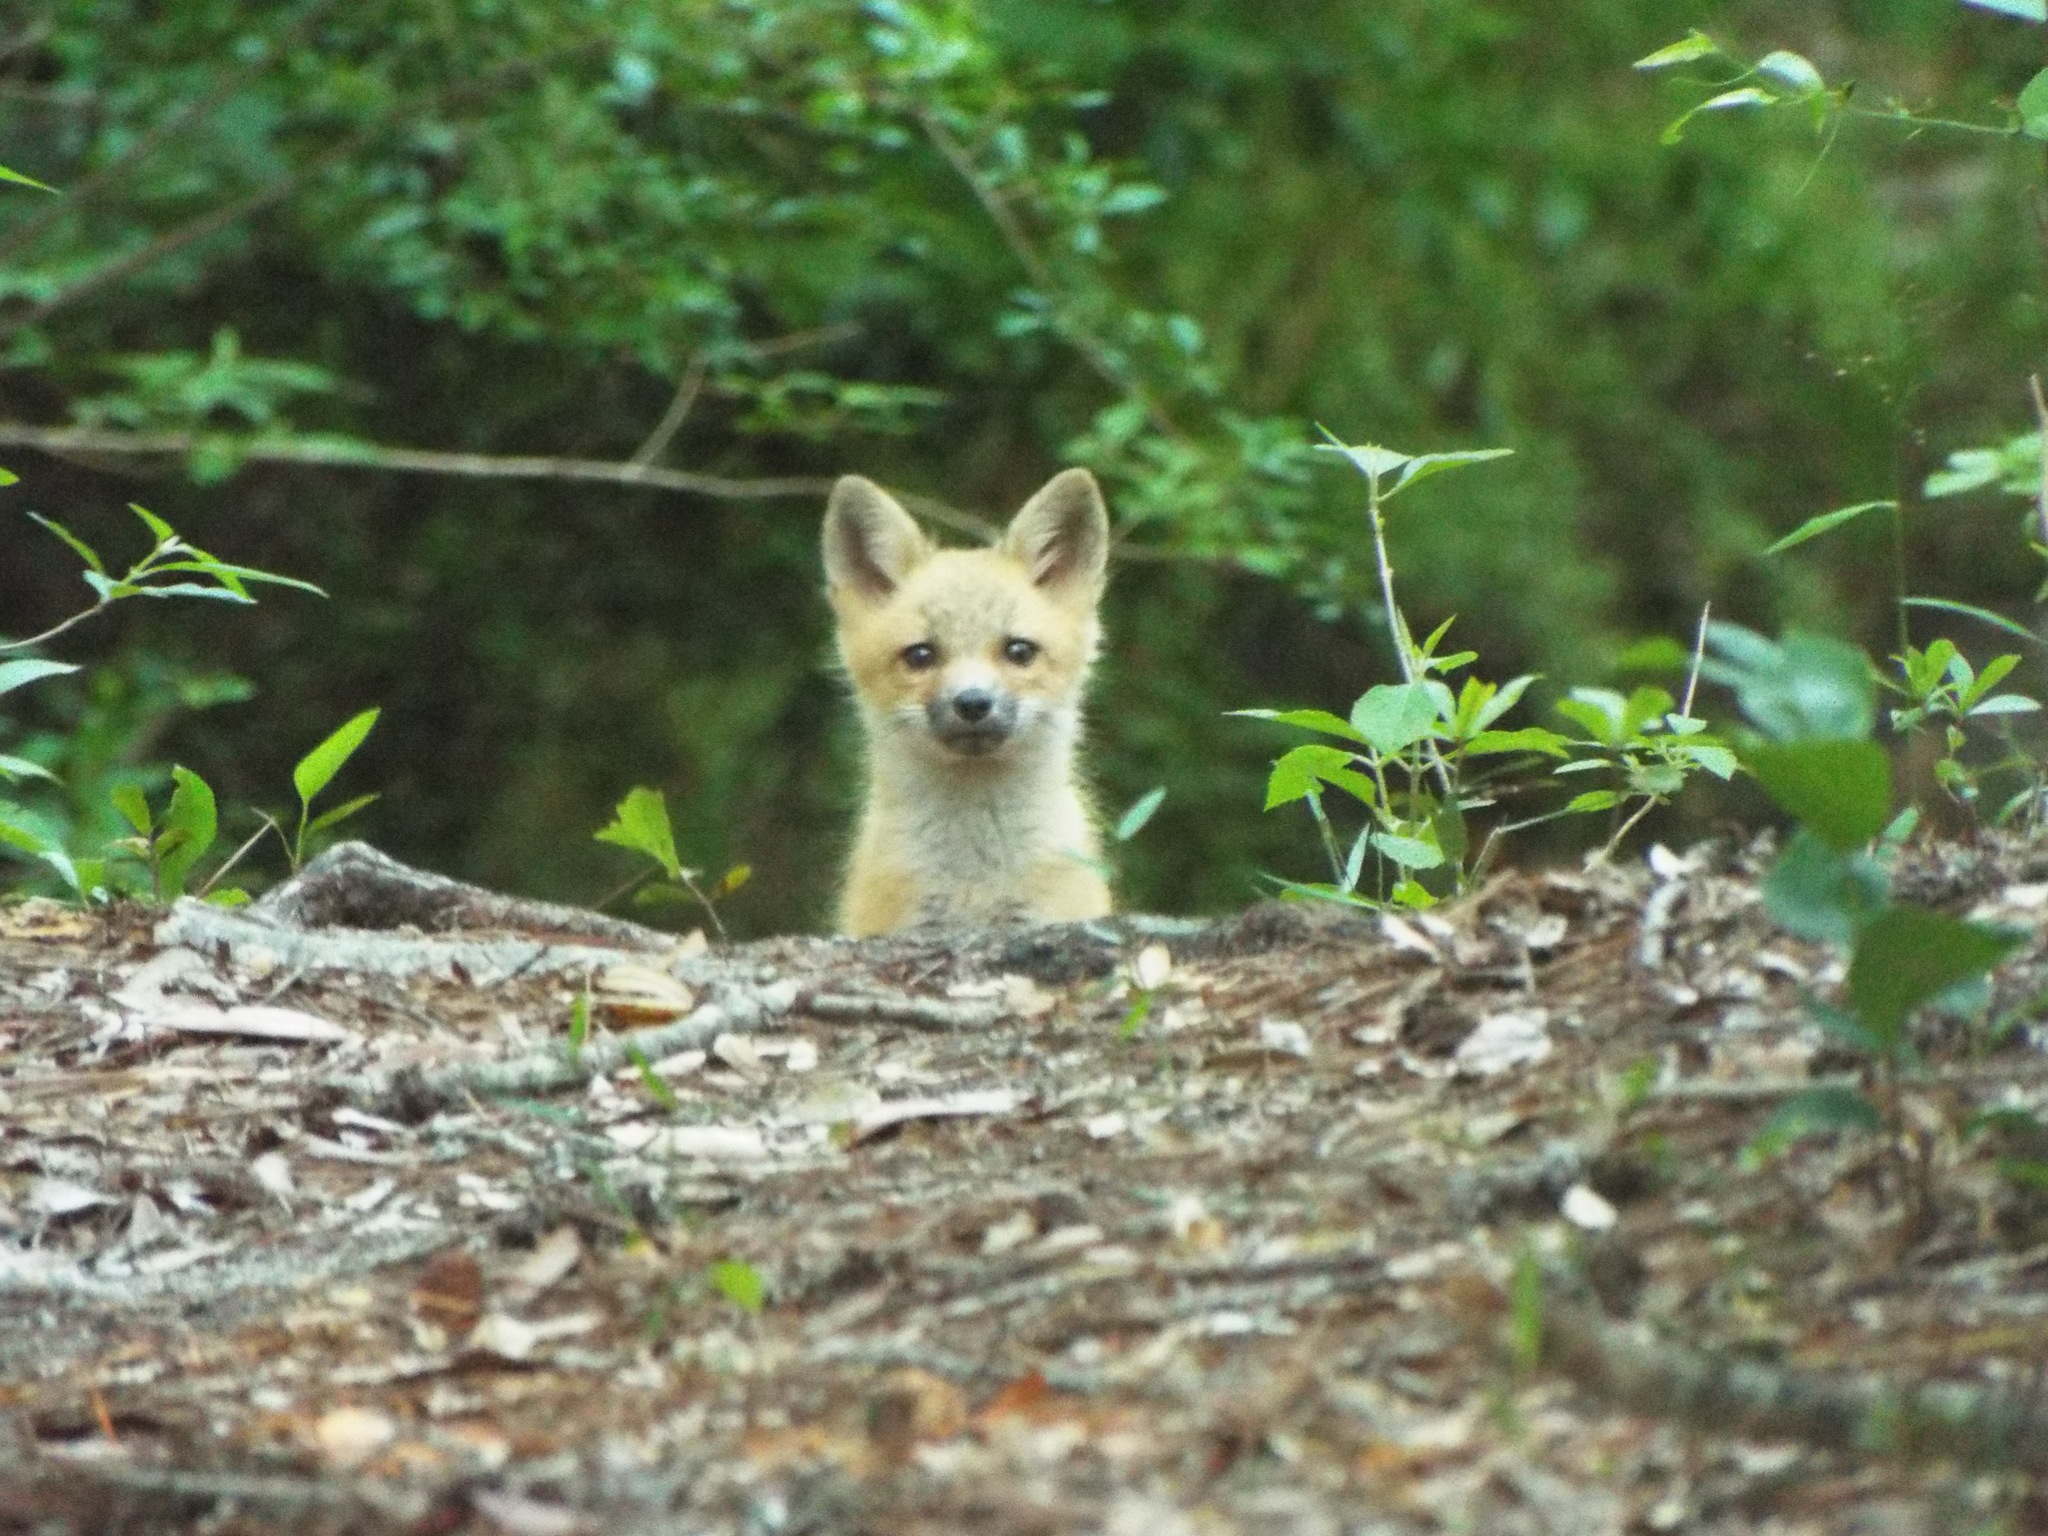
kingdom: Animalia
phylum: Chordata
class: Mammalia
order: Carnivora
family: Canidae
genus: Vulpes
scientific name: Vulpes vulpes
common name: Red fox
